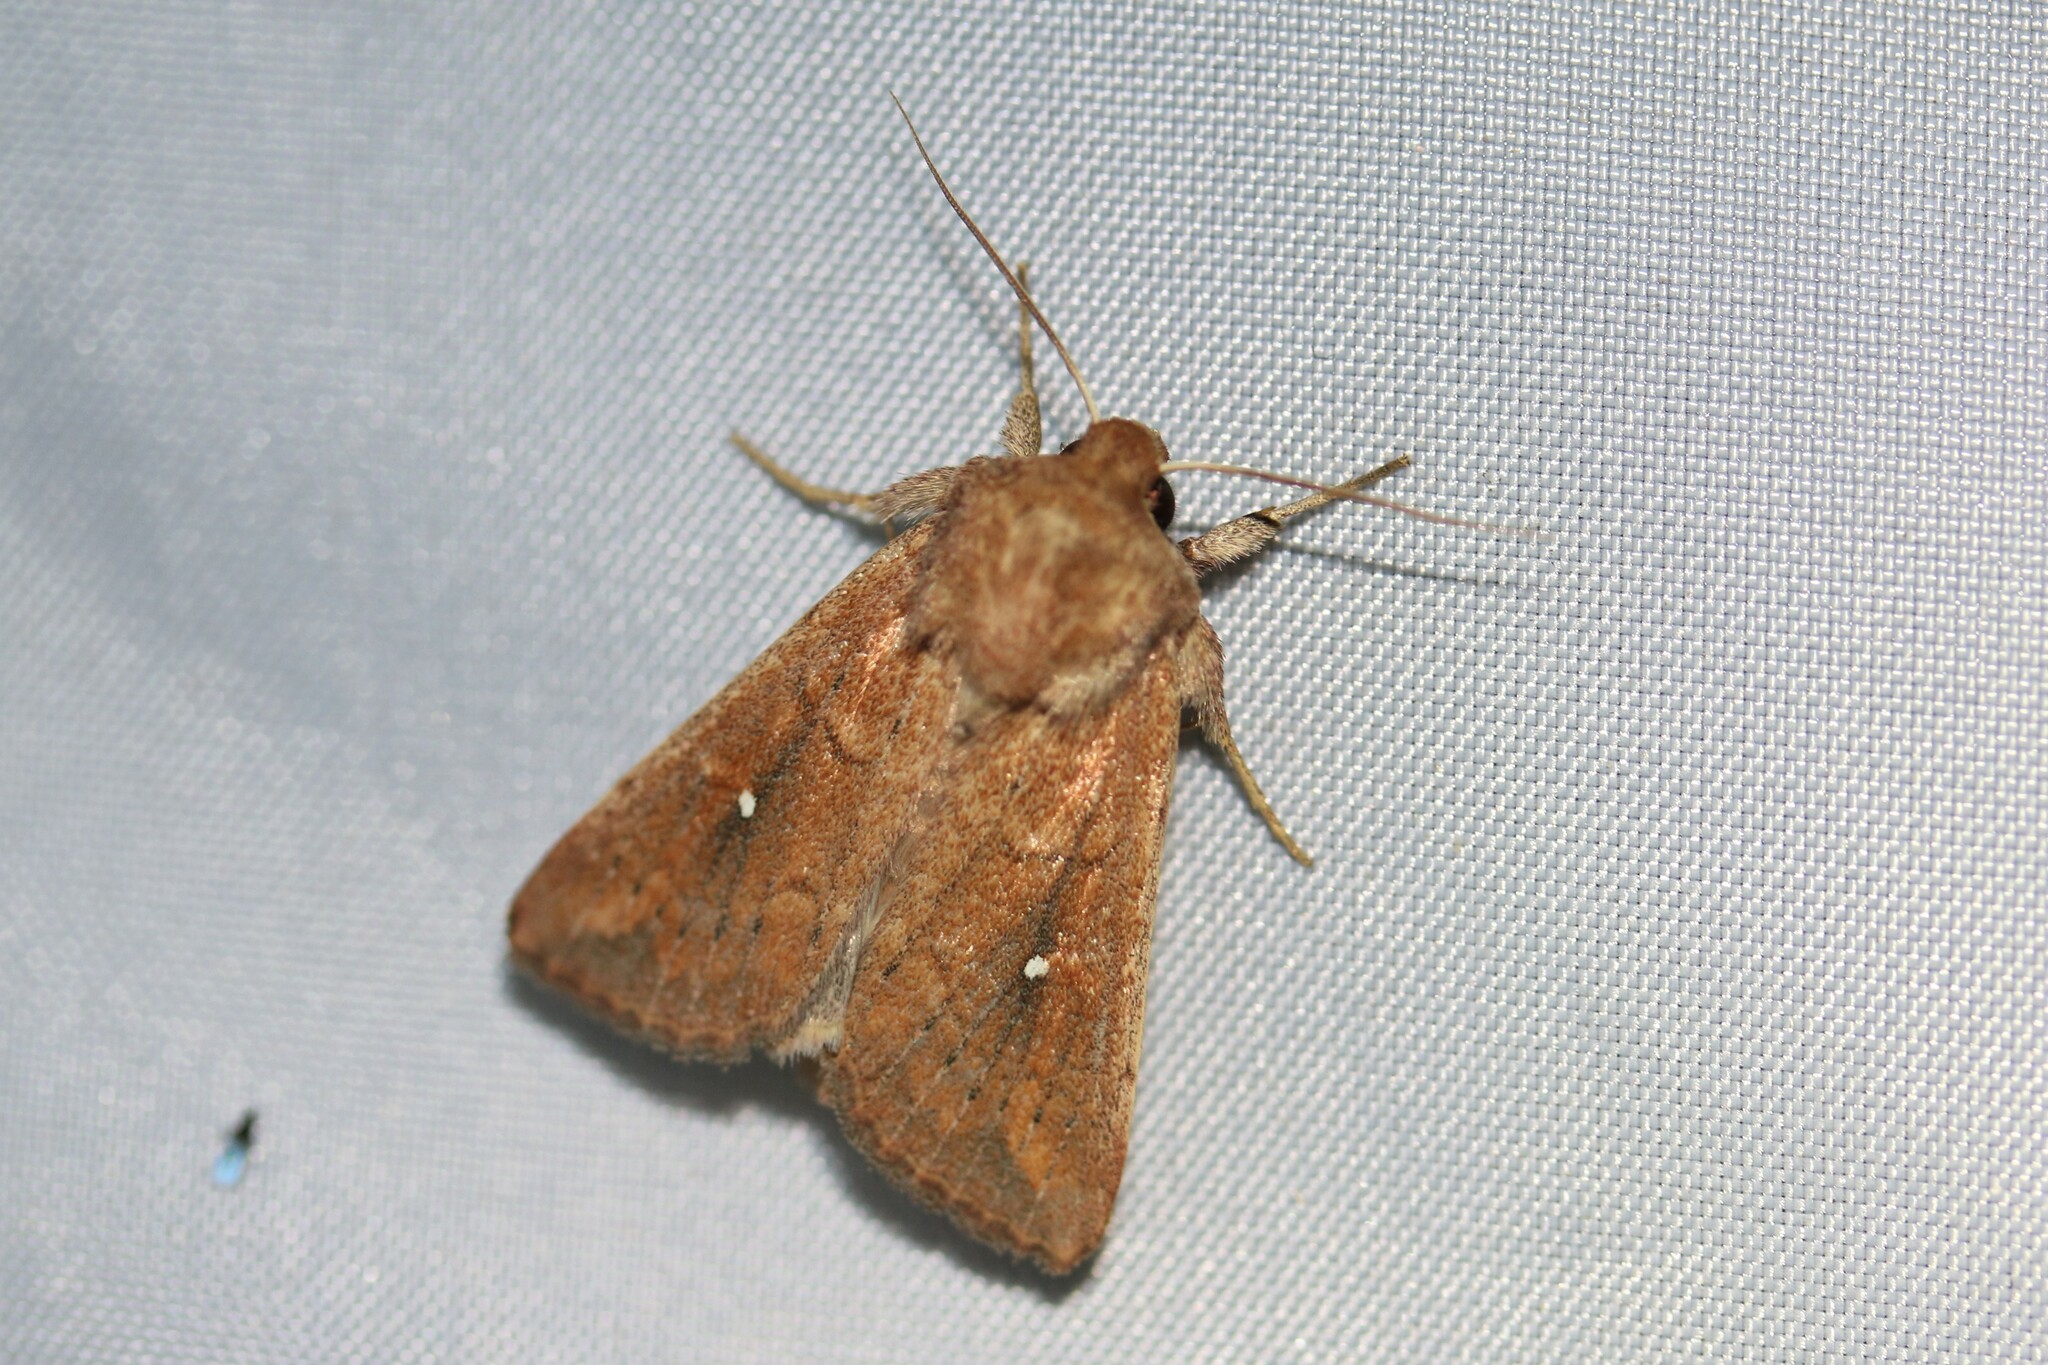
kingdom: Animalia
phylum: Arthropoda
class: Insecta
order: Lepidoptera
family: Noctuidae
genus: Mythimna
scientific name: Mythimna albipuncta
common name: White-point
